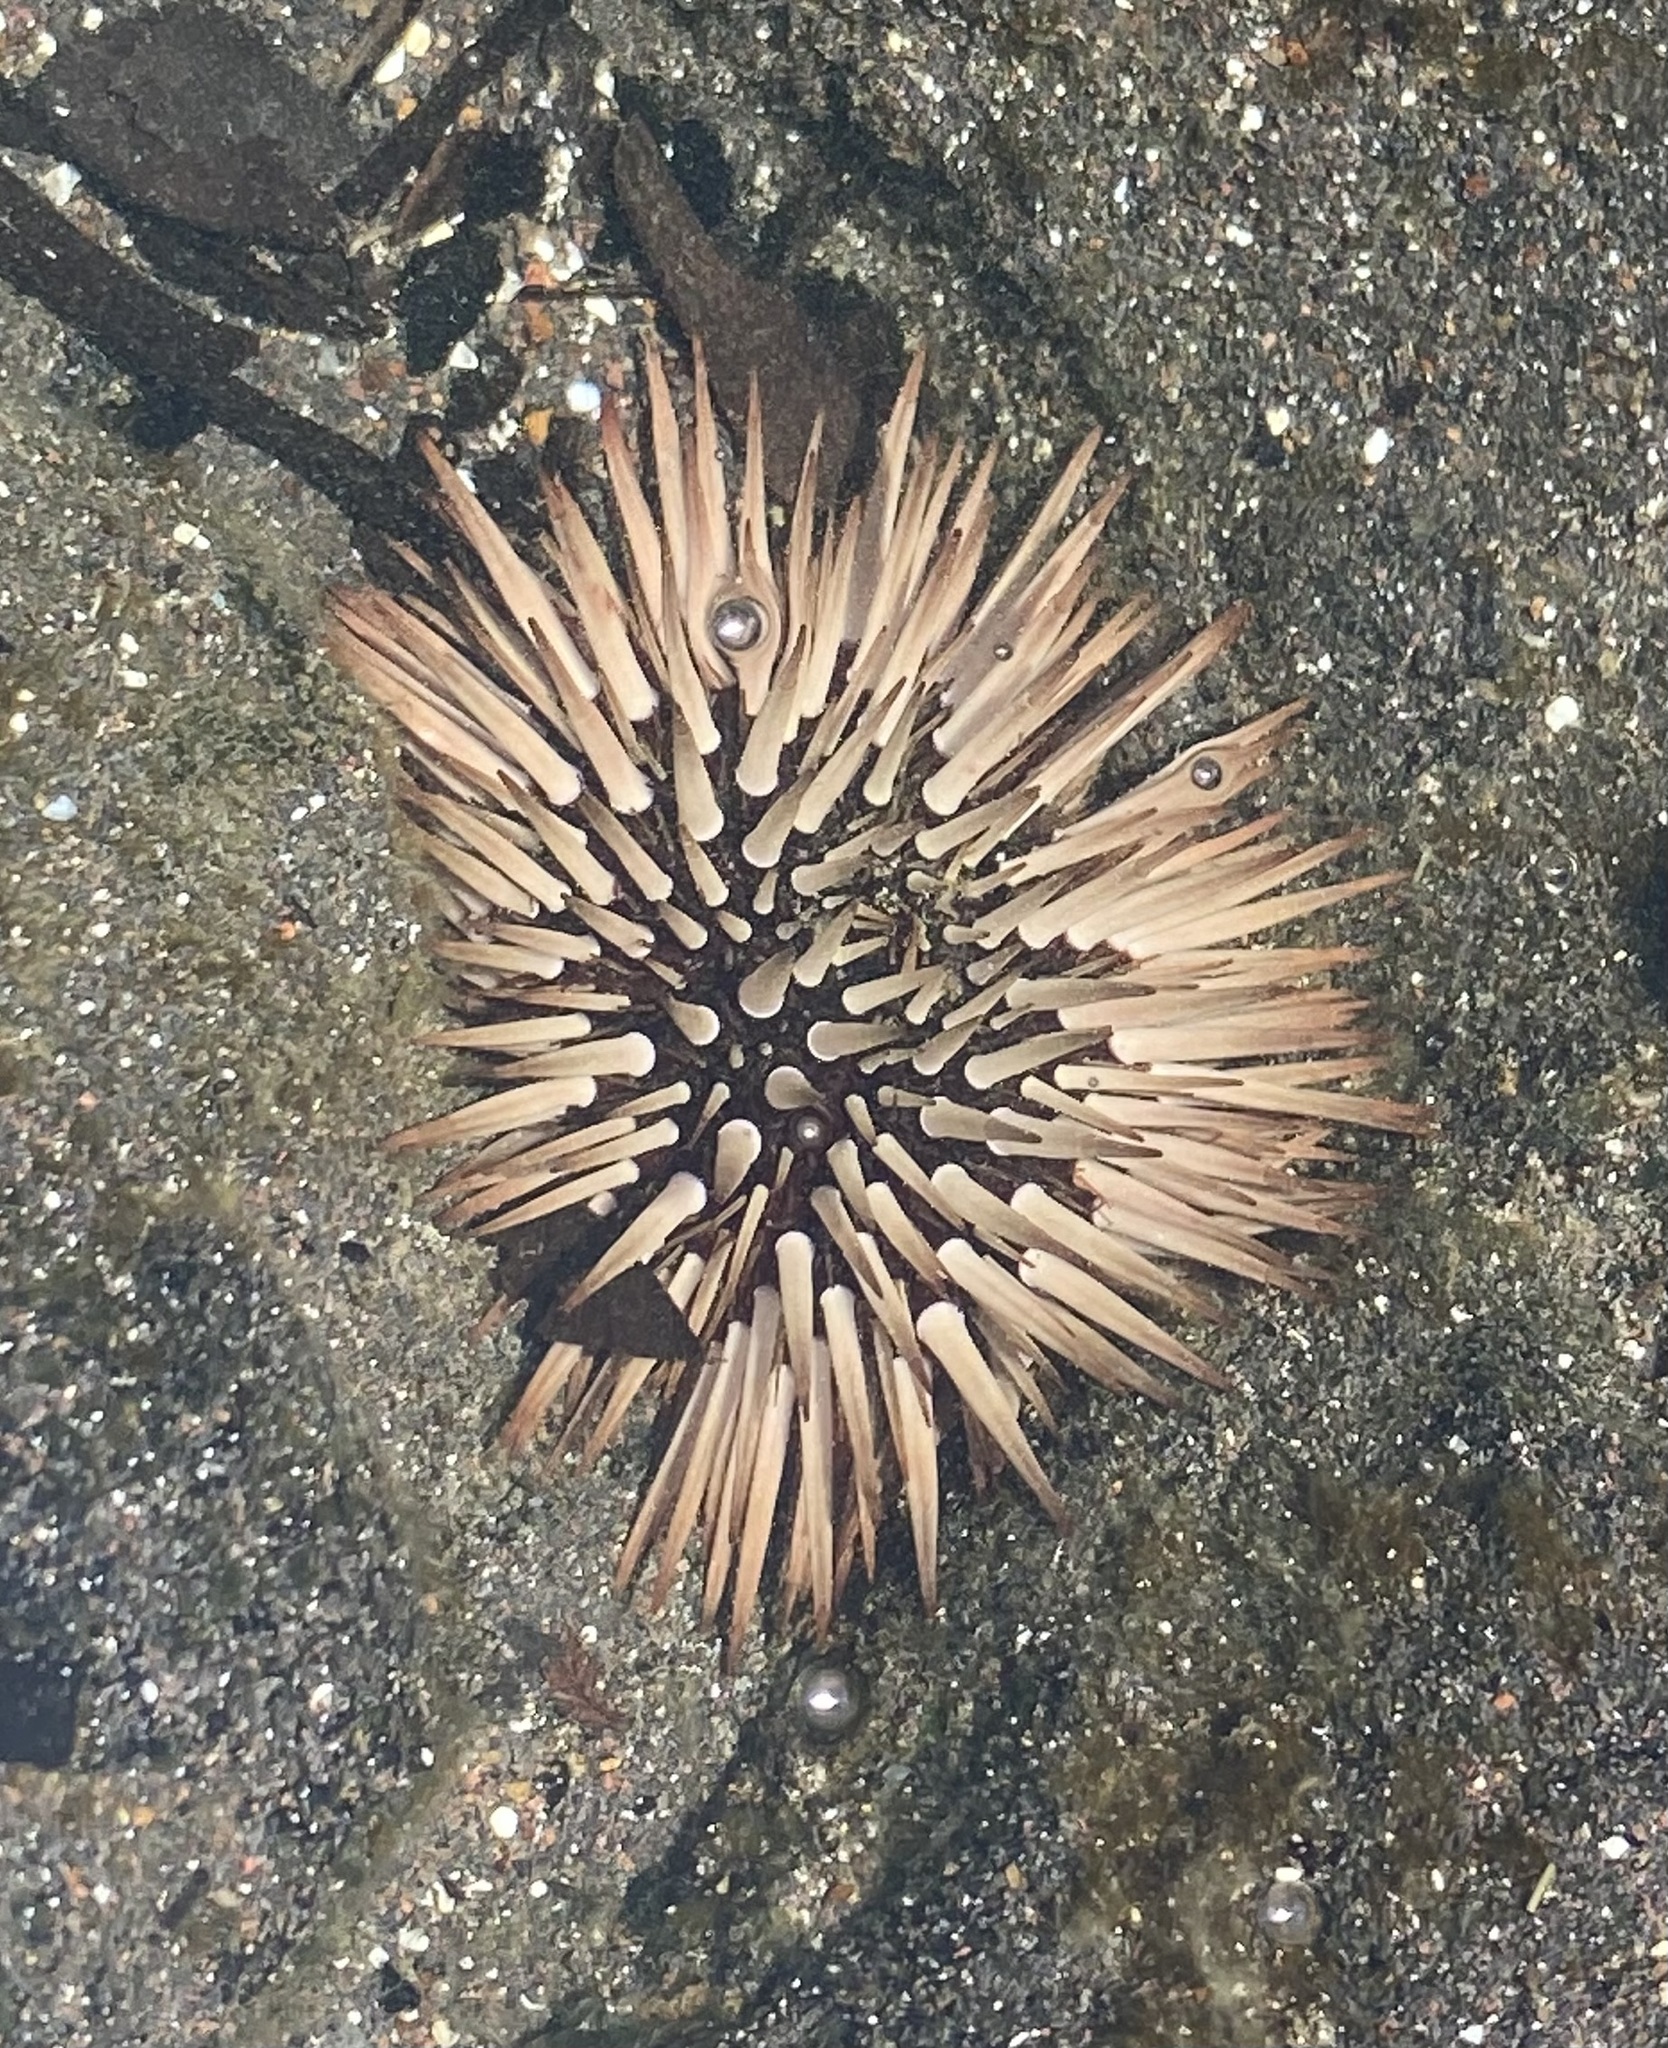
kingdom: Animalia
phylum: Echinodermata
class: Echinoidea
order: Camarodonta
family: Echinometridae
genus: Echinometra
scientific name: Echinometra mathaei
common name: Rock-boring urchin
